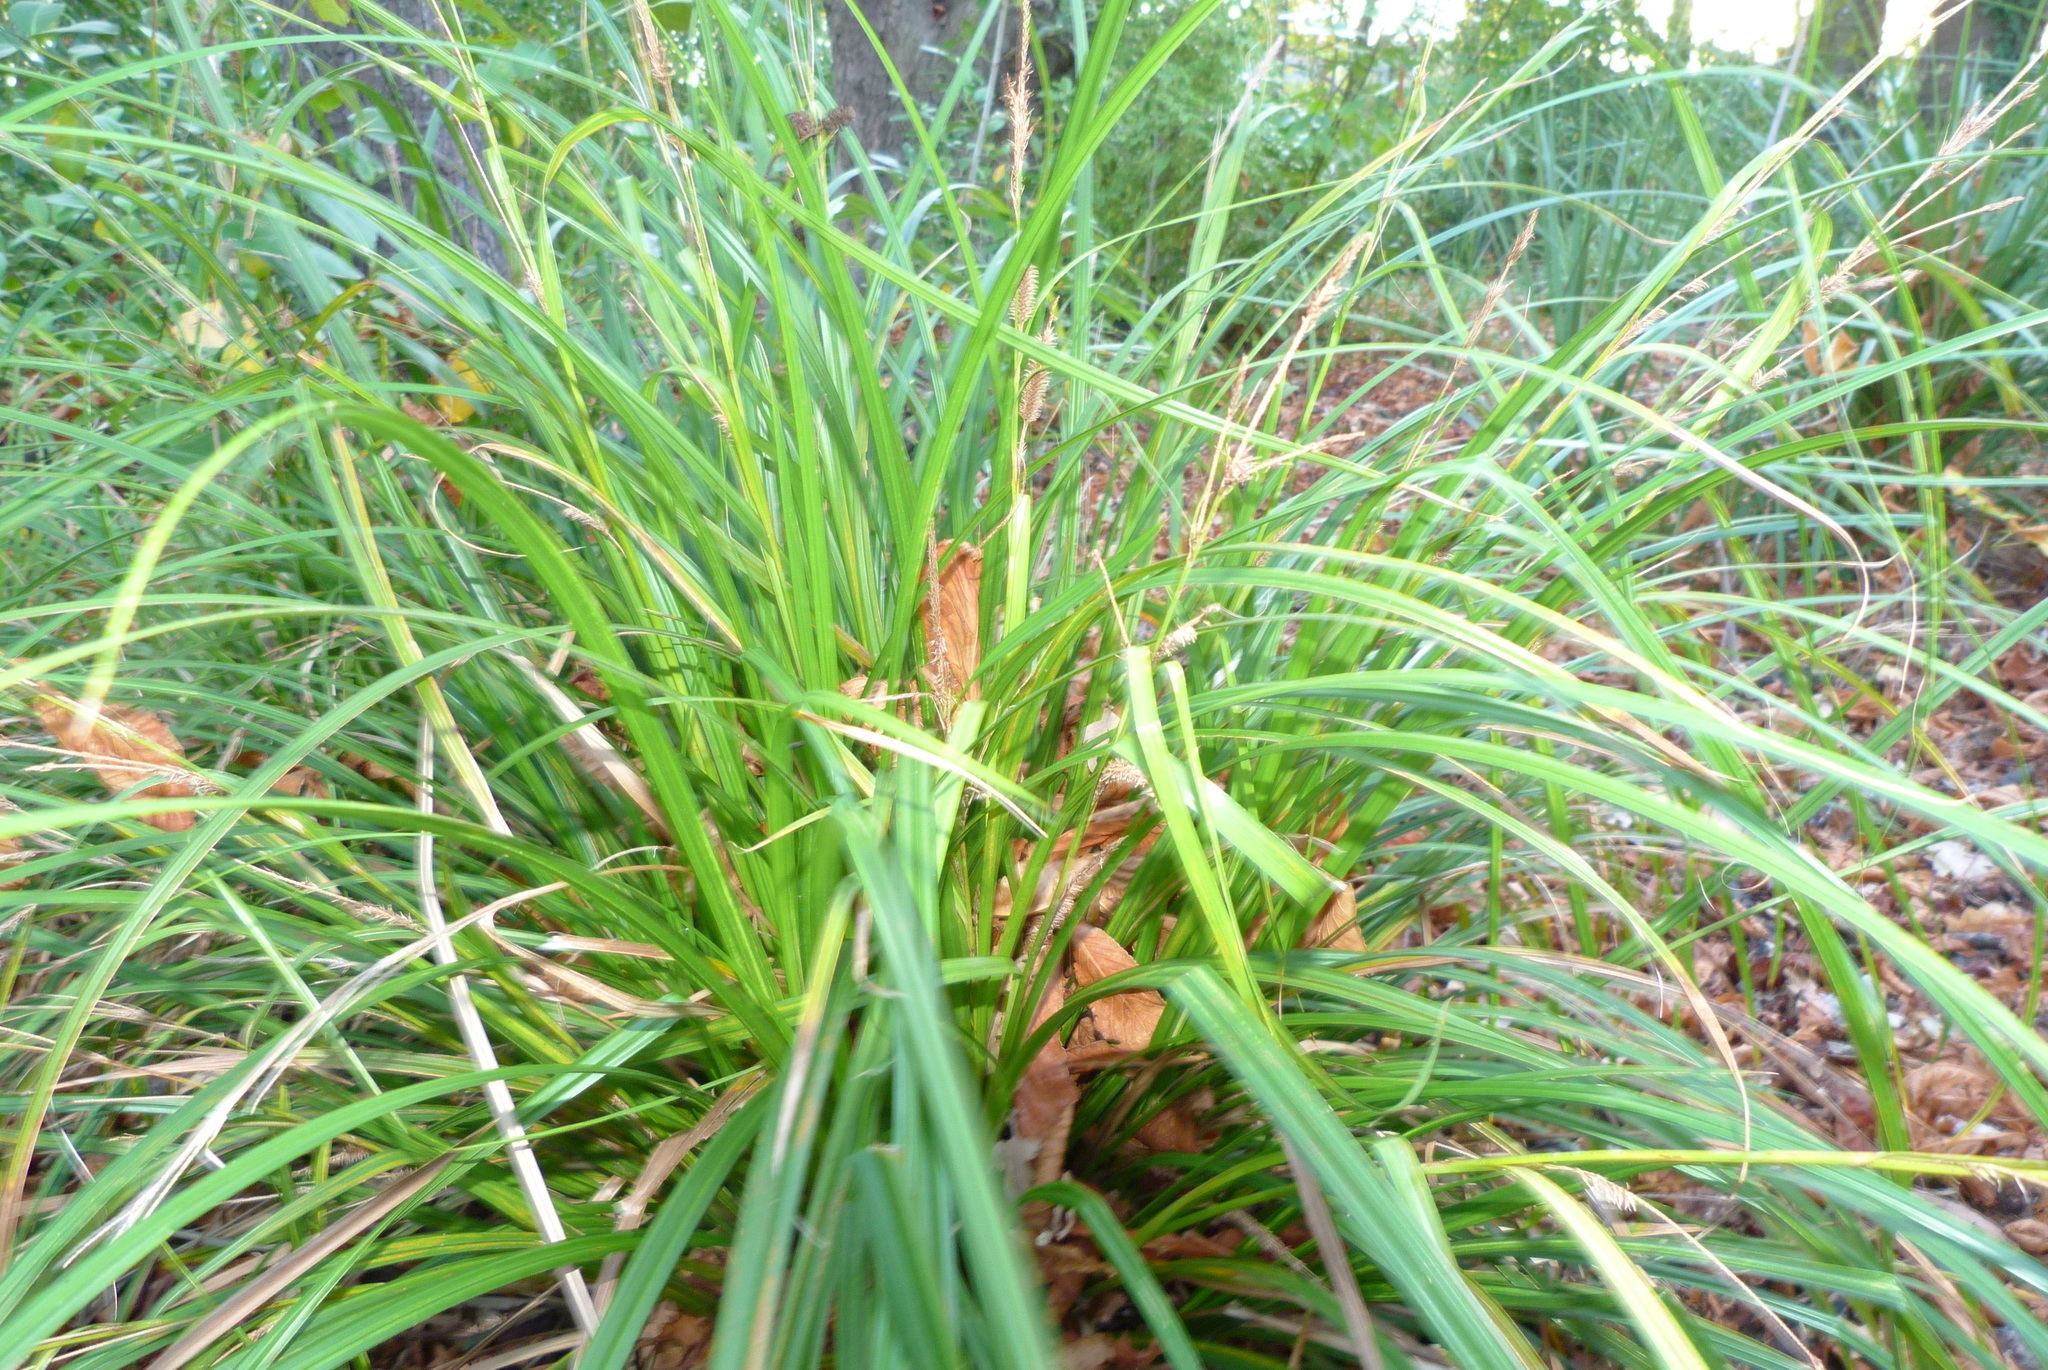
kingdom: Plantae
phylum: Tracheophyta
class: Liliopsida
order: Poales
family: Cyperaceae
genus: Carex
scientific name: Carex cockayneana
